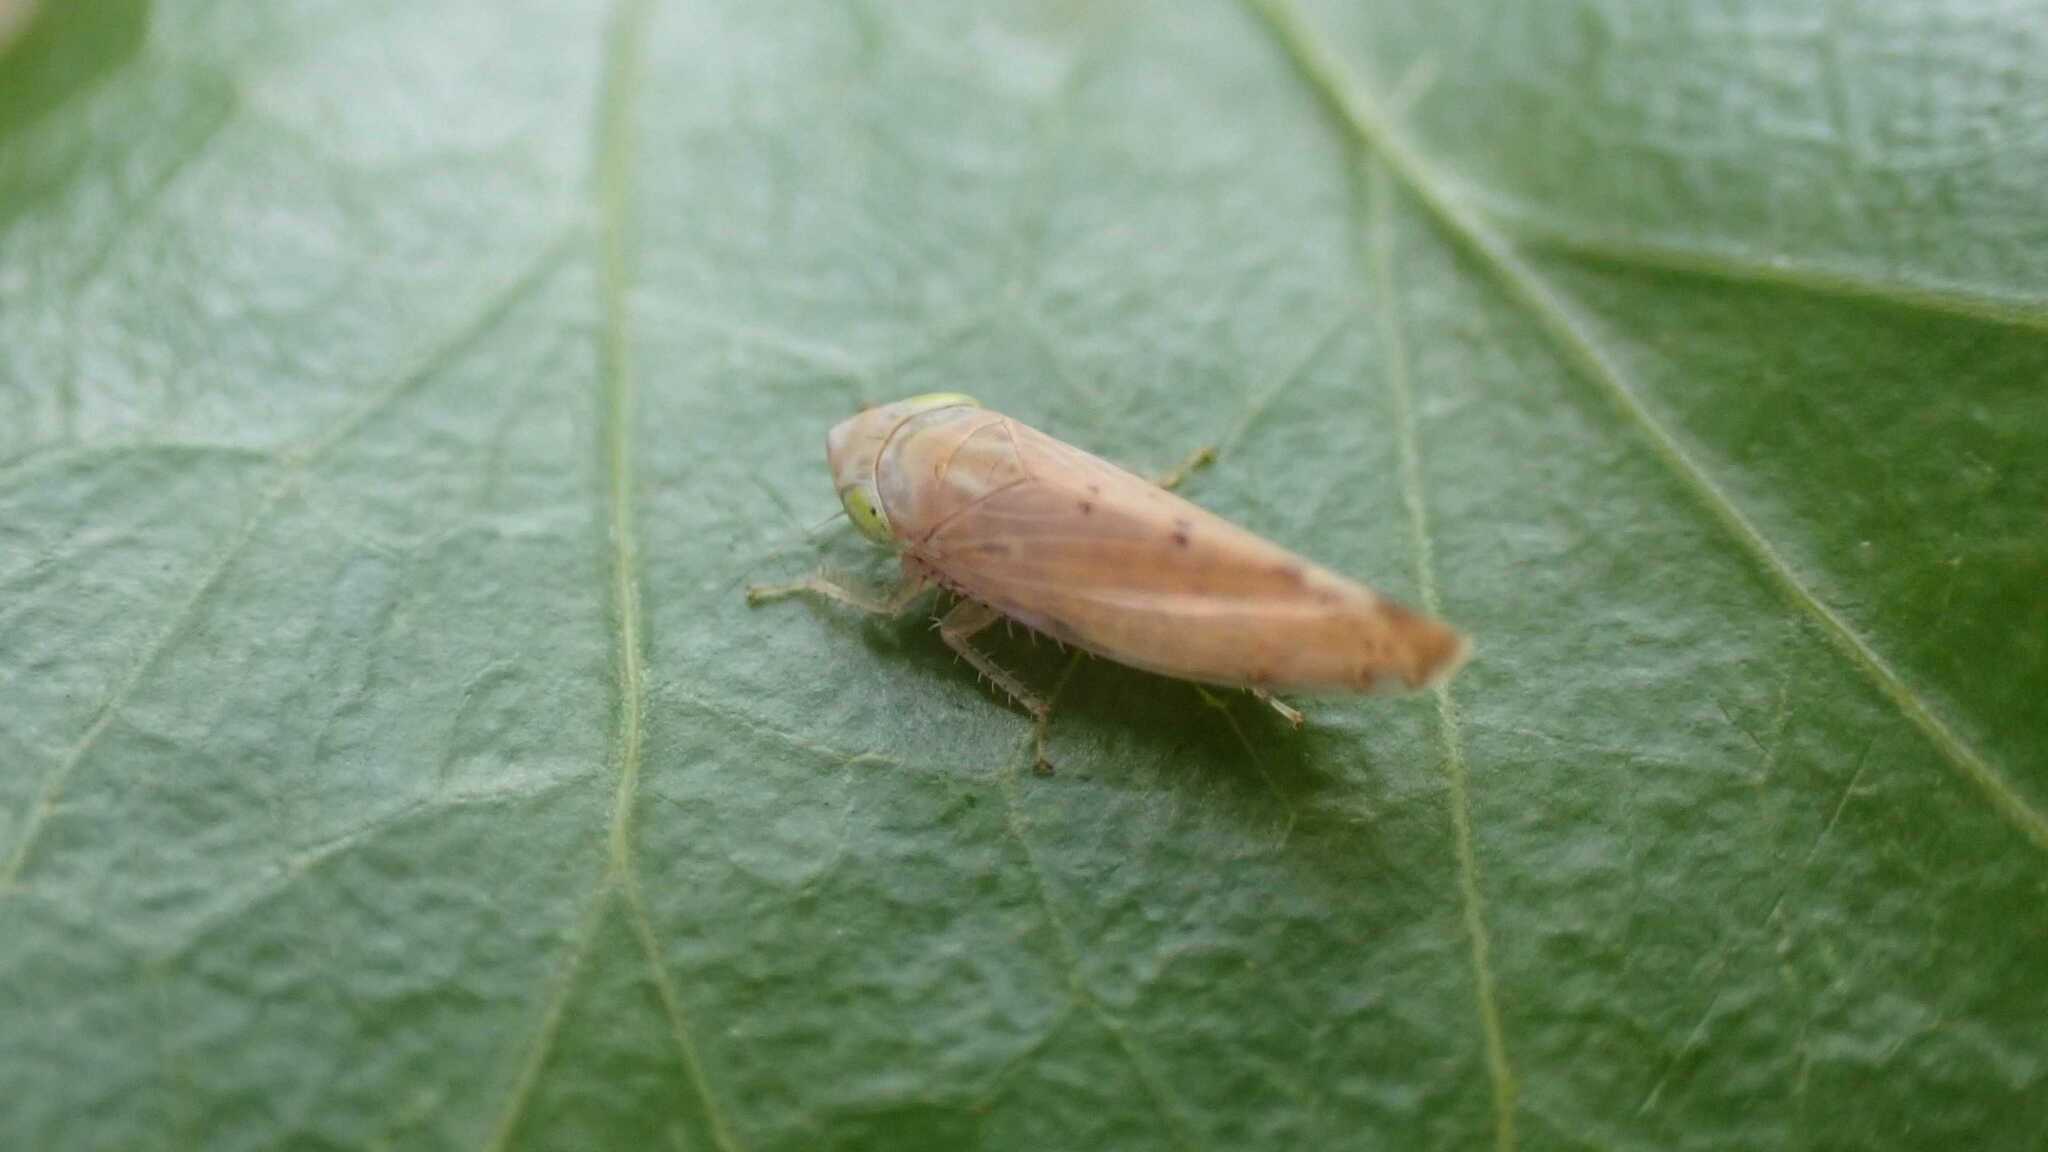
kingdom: Animalia
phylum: Arthropoda
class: Insecta
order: Hemiptera
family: Cicadellidae
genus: Synophropsis
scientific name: Synophropsis lauri
